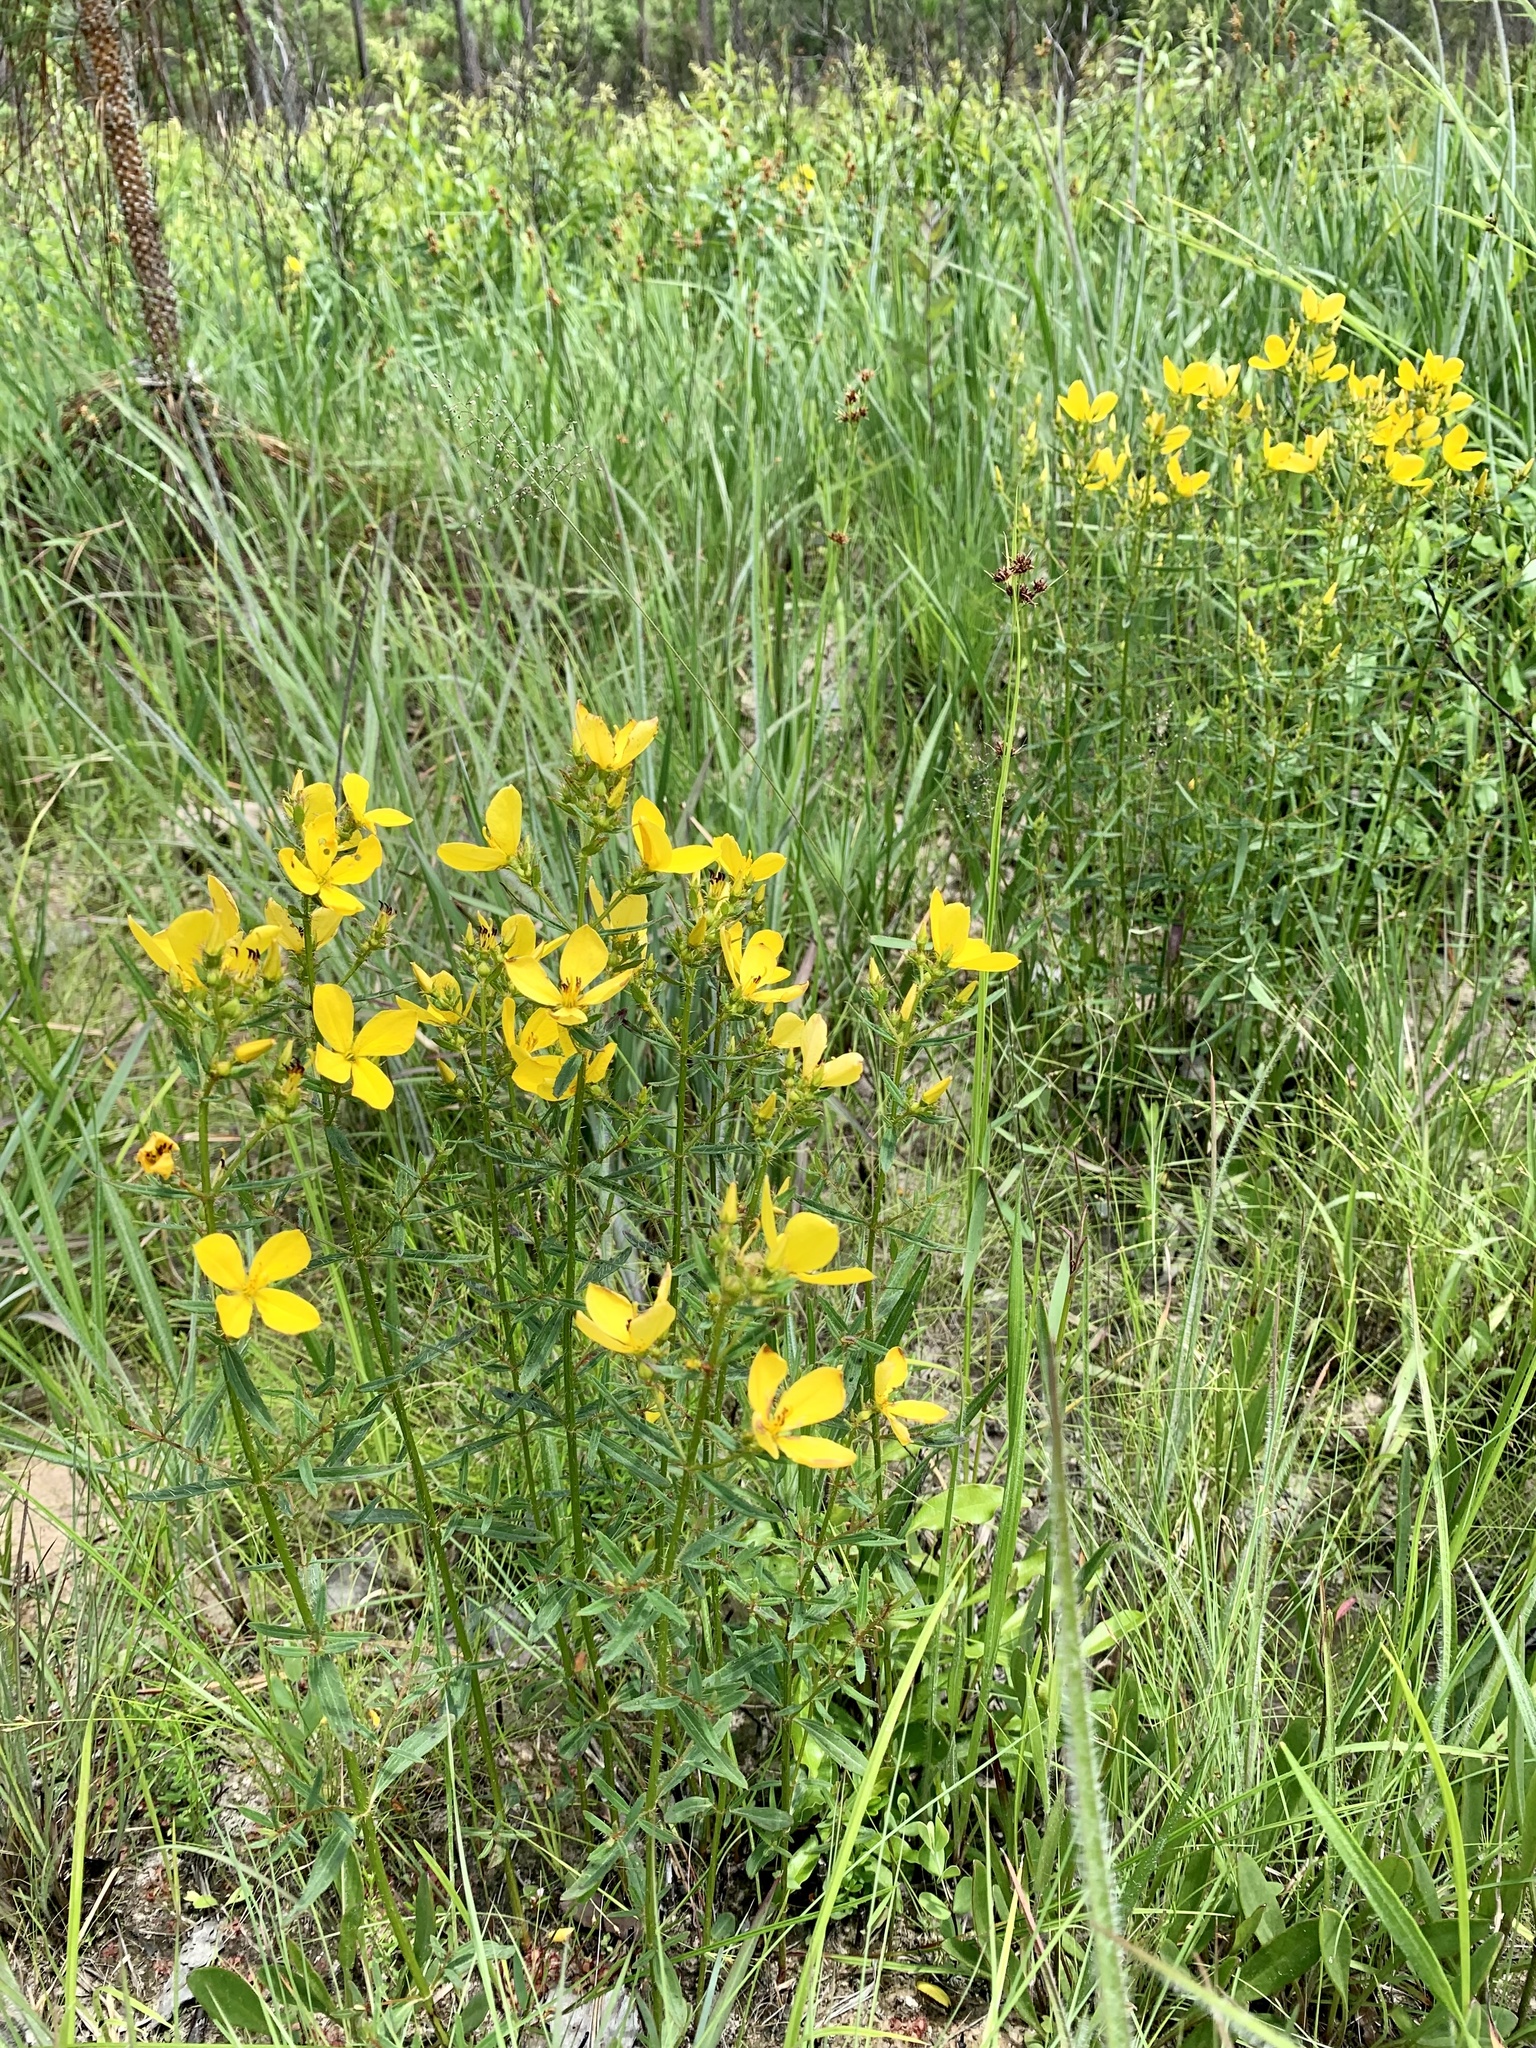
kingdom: Plantae
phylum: Tracheophyta
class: Magnoliopsida
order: Myrtales
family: Melastomataceae
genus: Rhexia
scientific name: Rhexia lutea
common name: Golden meadow-beauty
